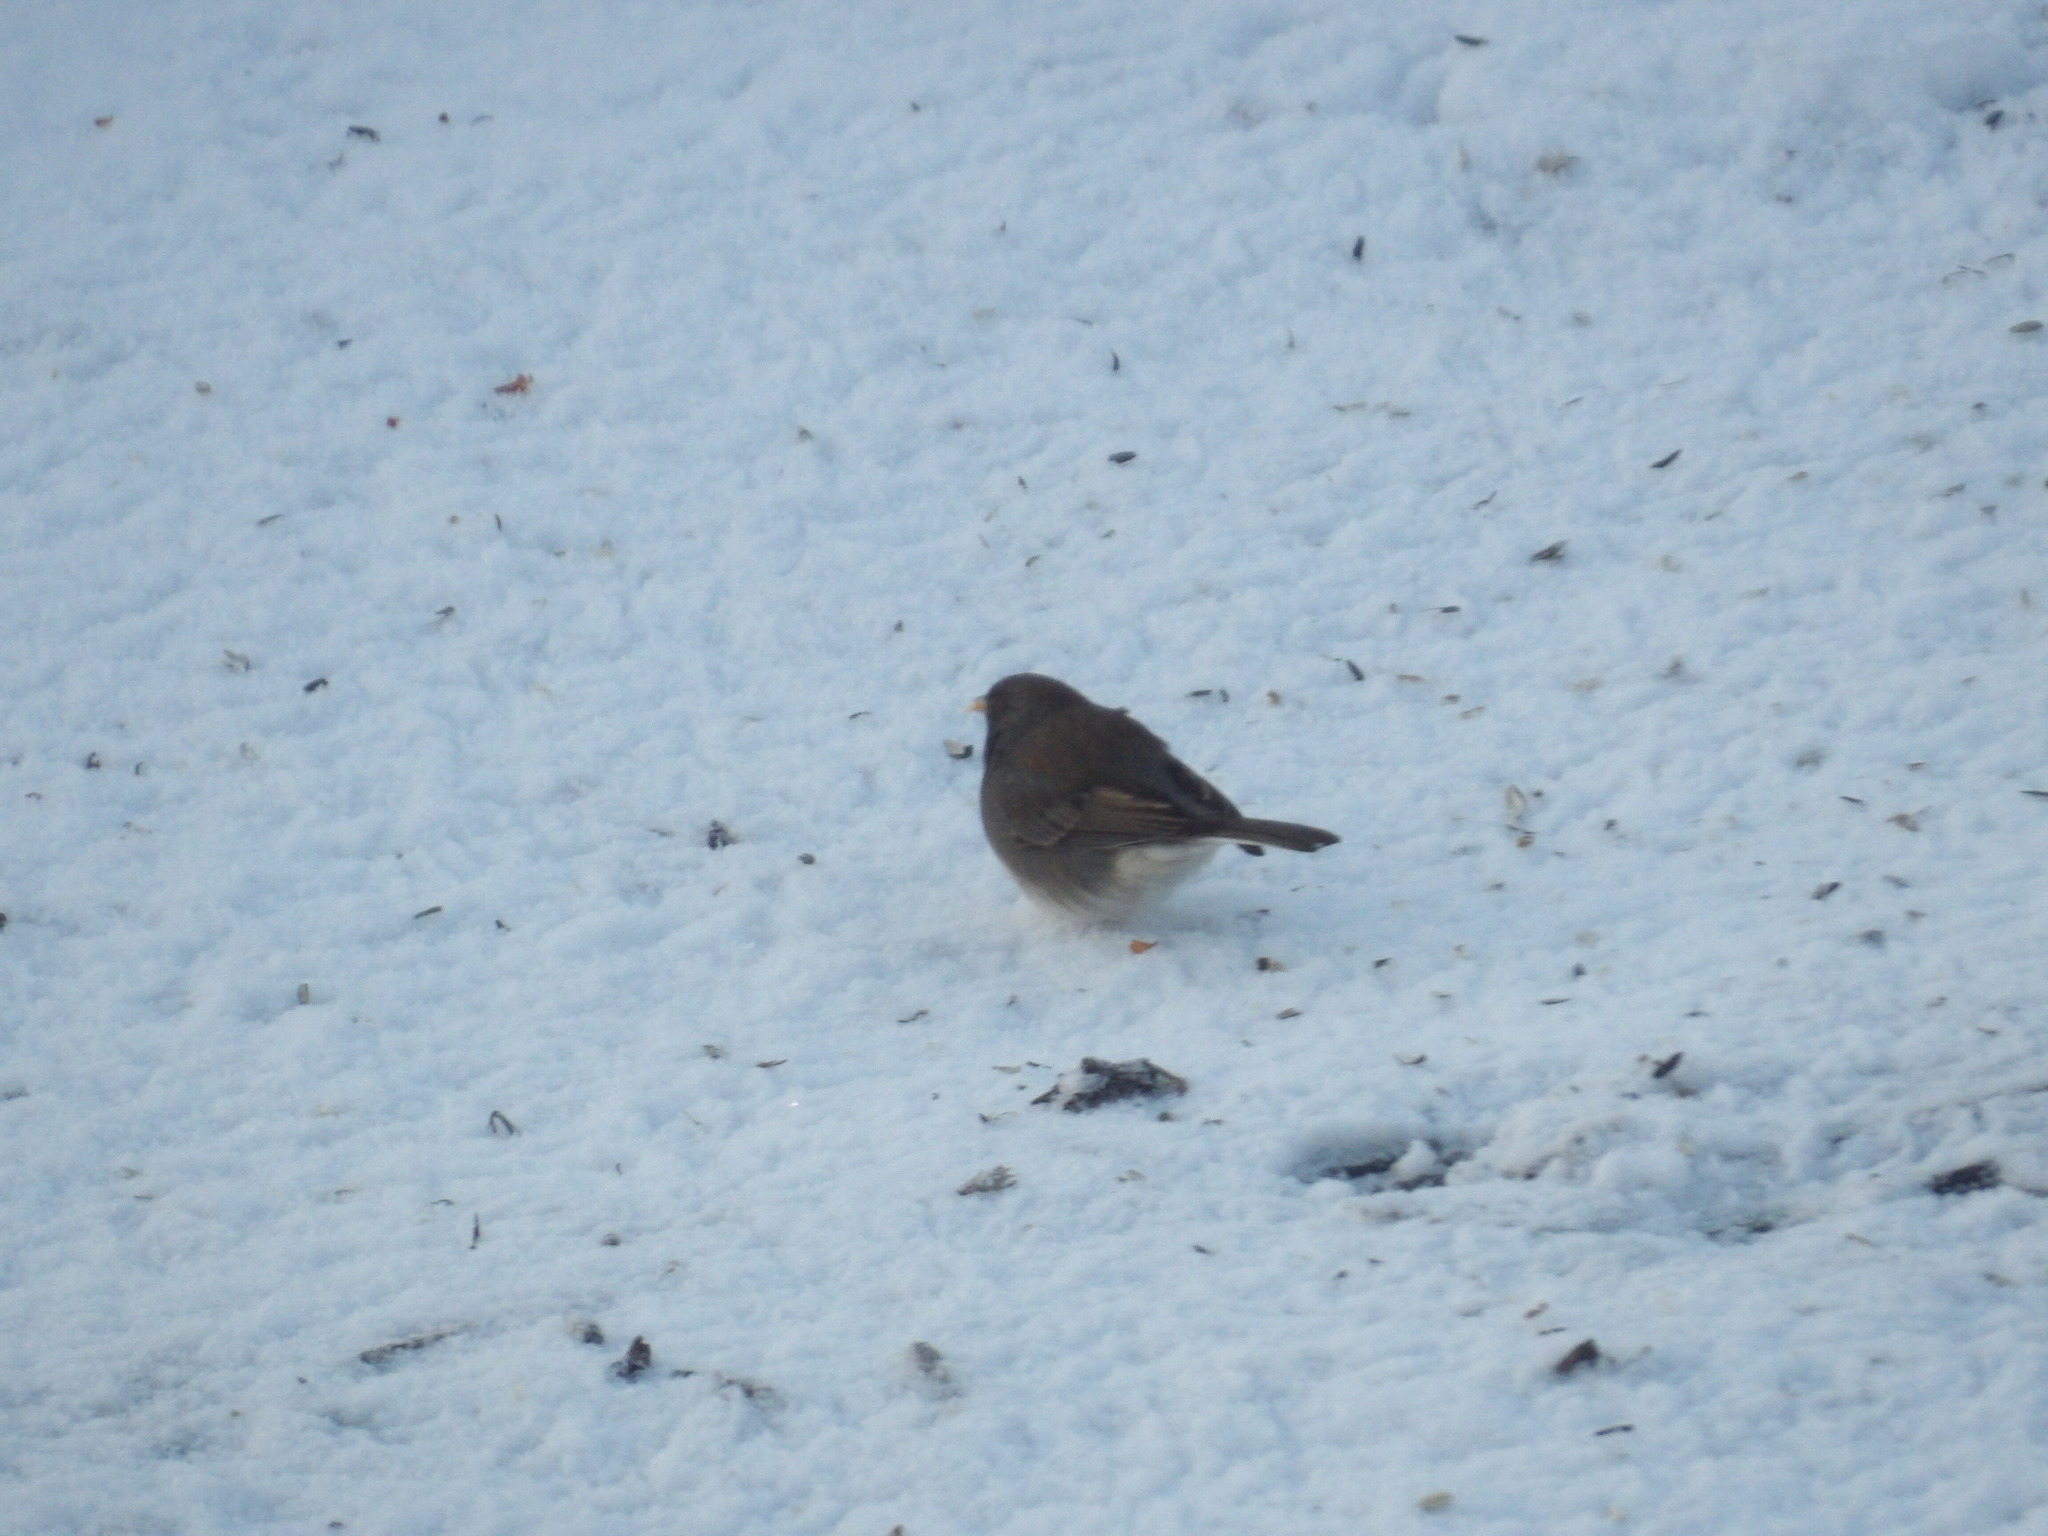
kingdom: Animalia
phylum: Chordata
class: Aves
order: Passeriformes
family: Passerellidae
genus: Junco
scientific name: Junco hyemalis
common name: Dark-eyed junco
